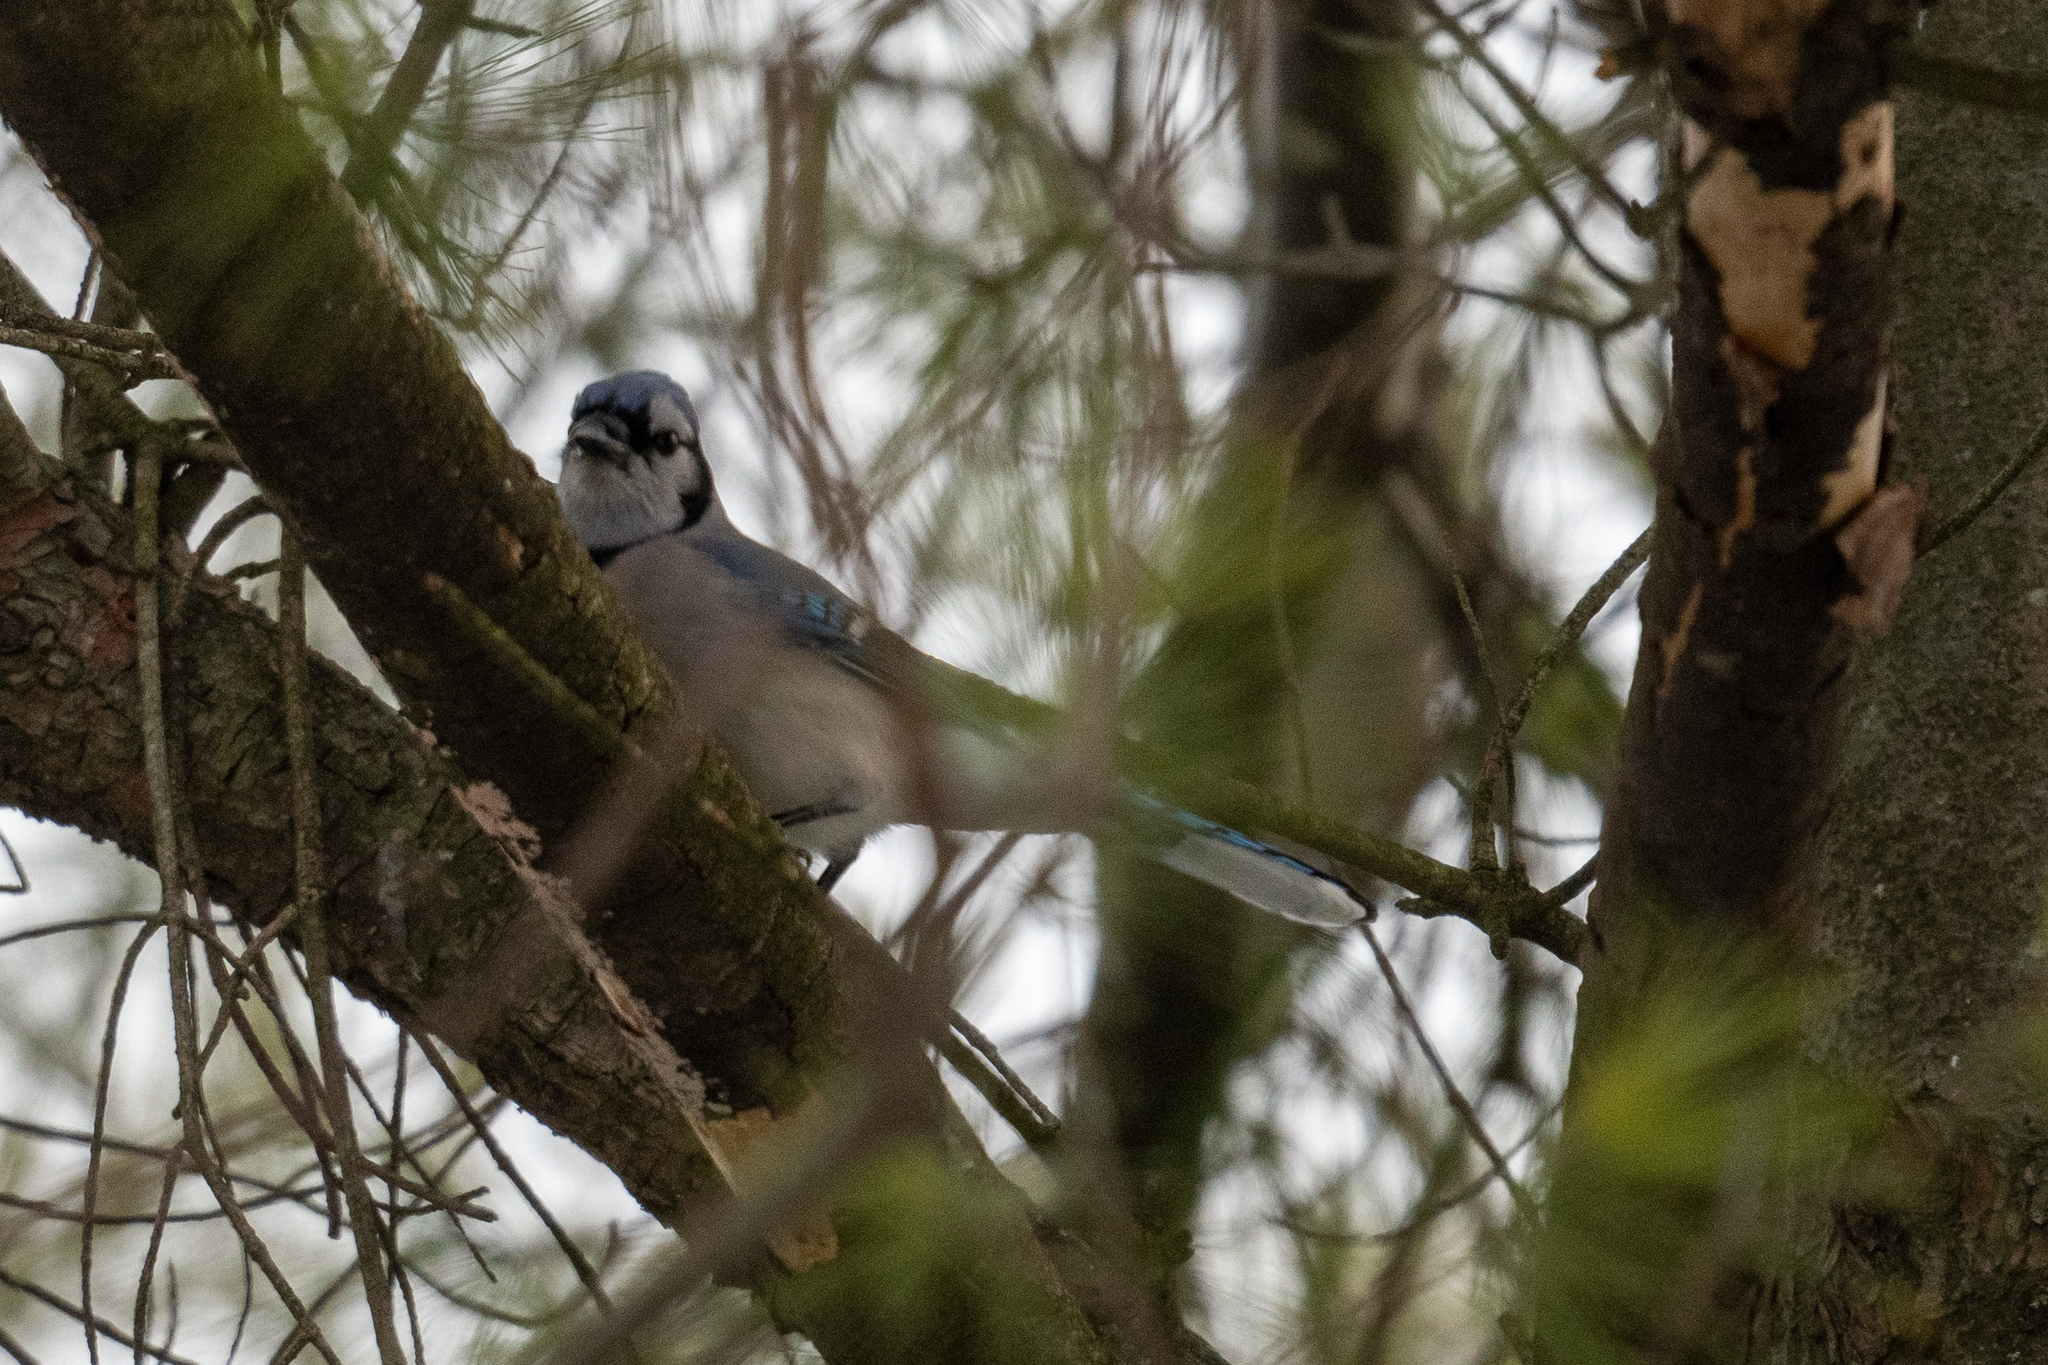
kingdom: Animalia
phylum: Chordata
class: Aves
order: Passeriformes
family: Corvidae
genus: Cyanocitta
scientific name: Cyanocitta cristata
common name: Blue jay
